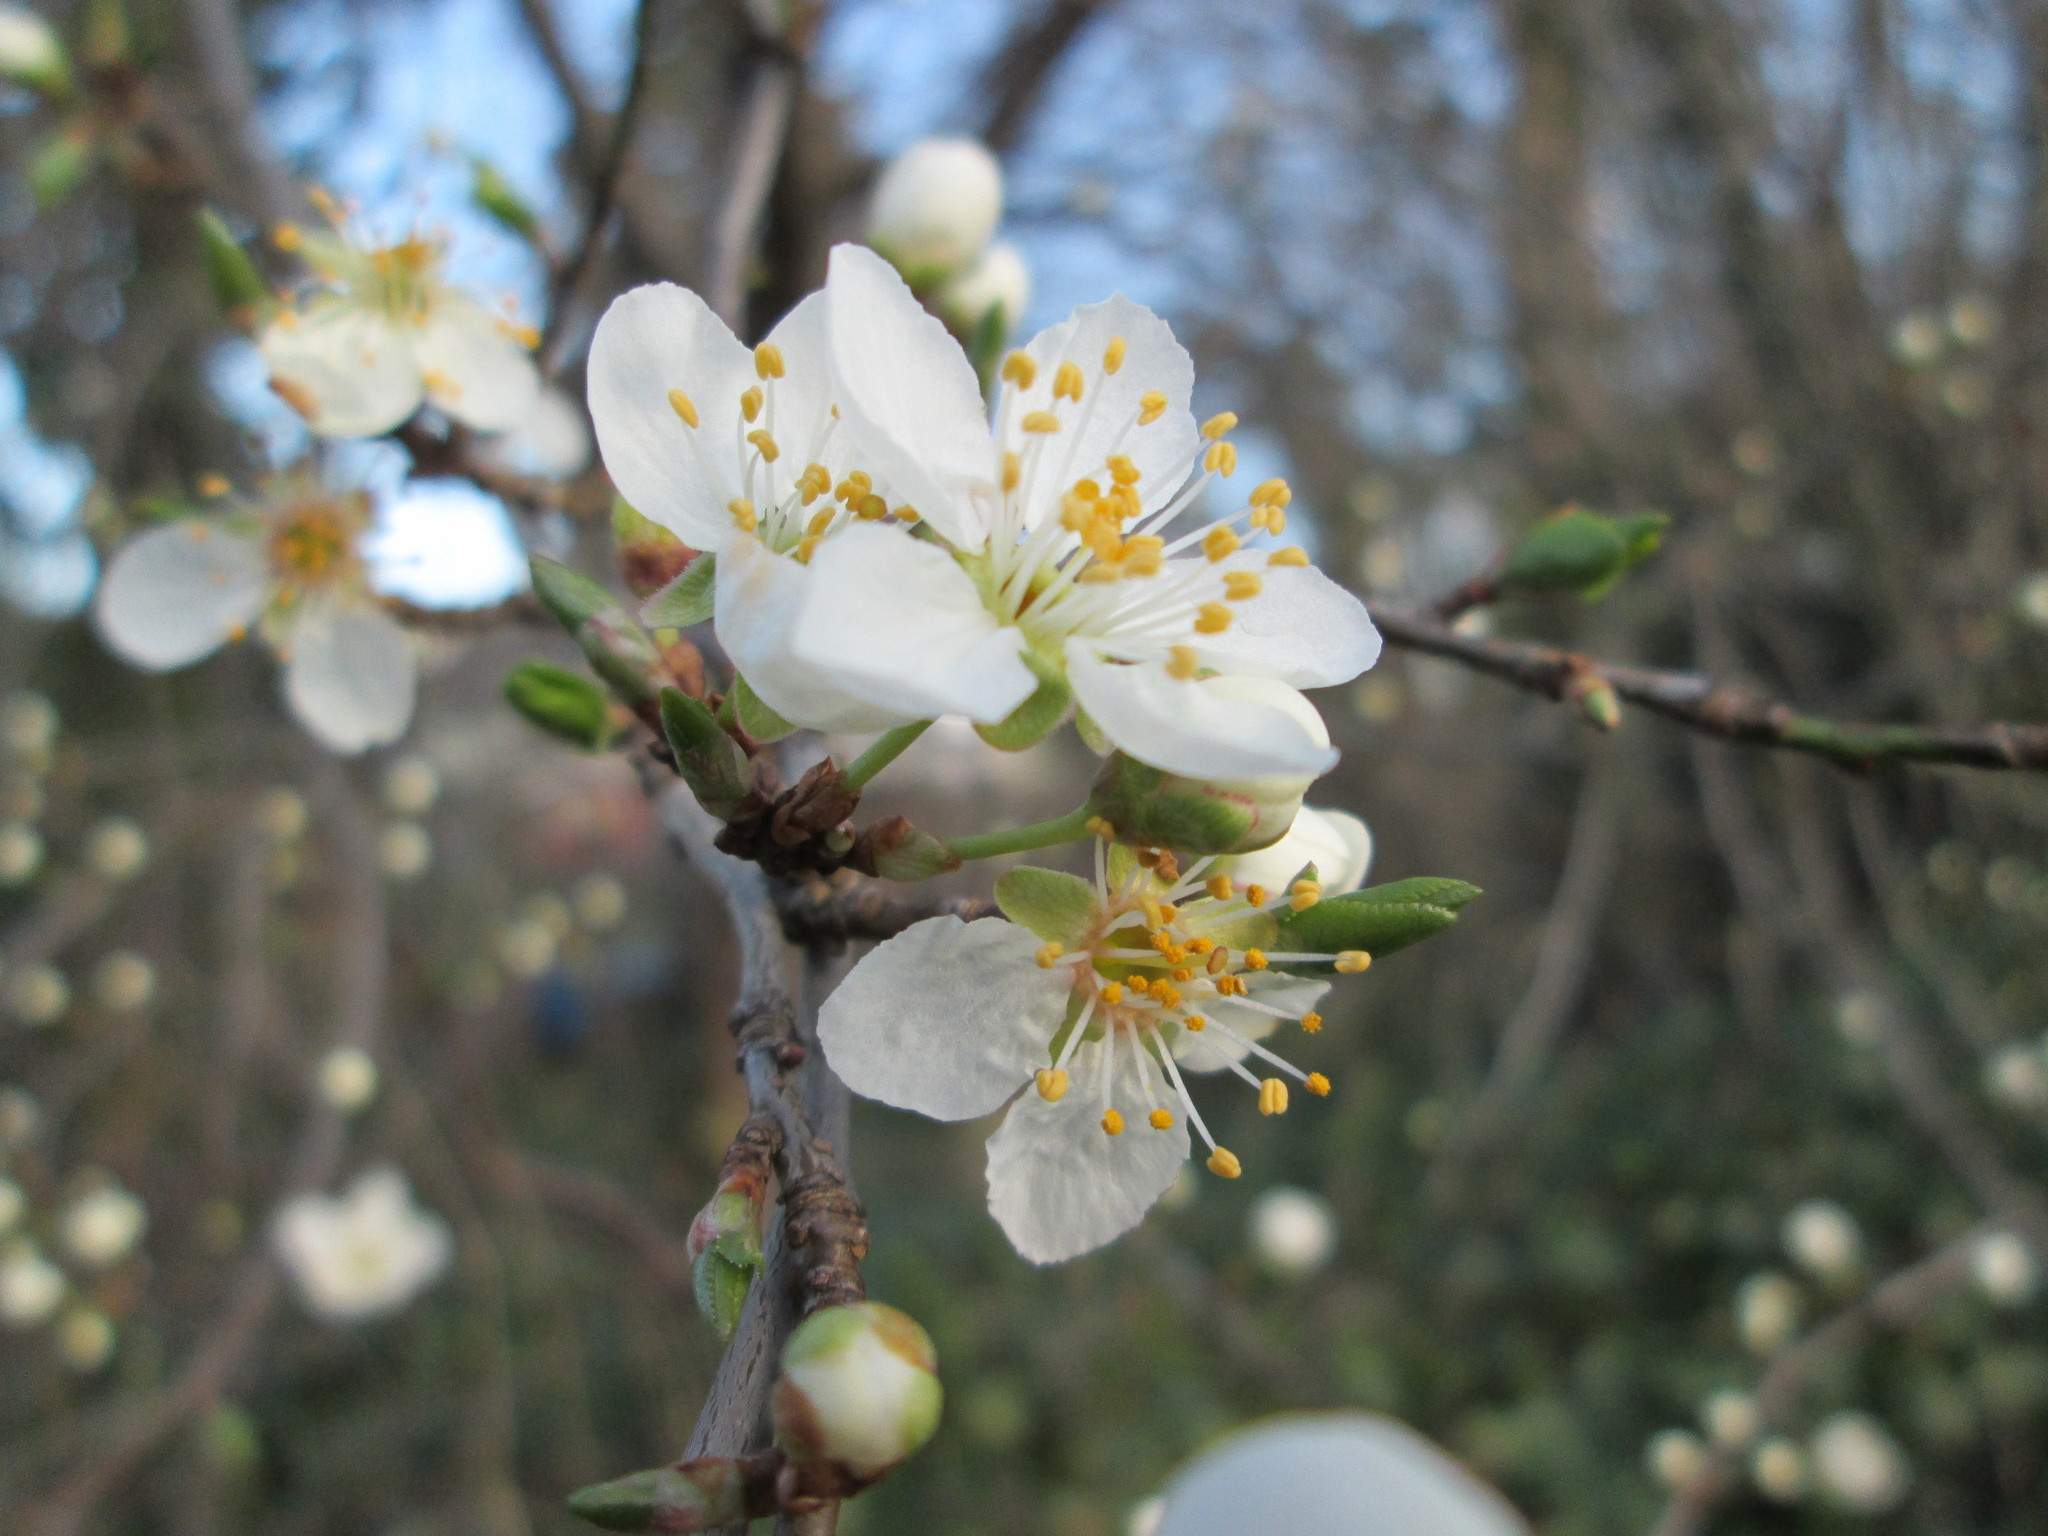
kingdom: Plantae
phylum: Tracheophyta
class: Magnoliopsida
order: Rosales
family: Rosaceae
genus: Prunus
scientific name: Prunus cerasifera
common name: Cherry plum
